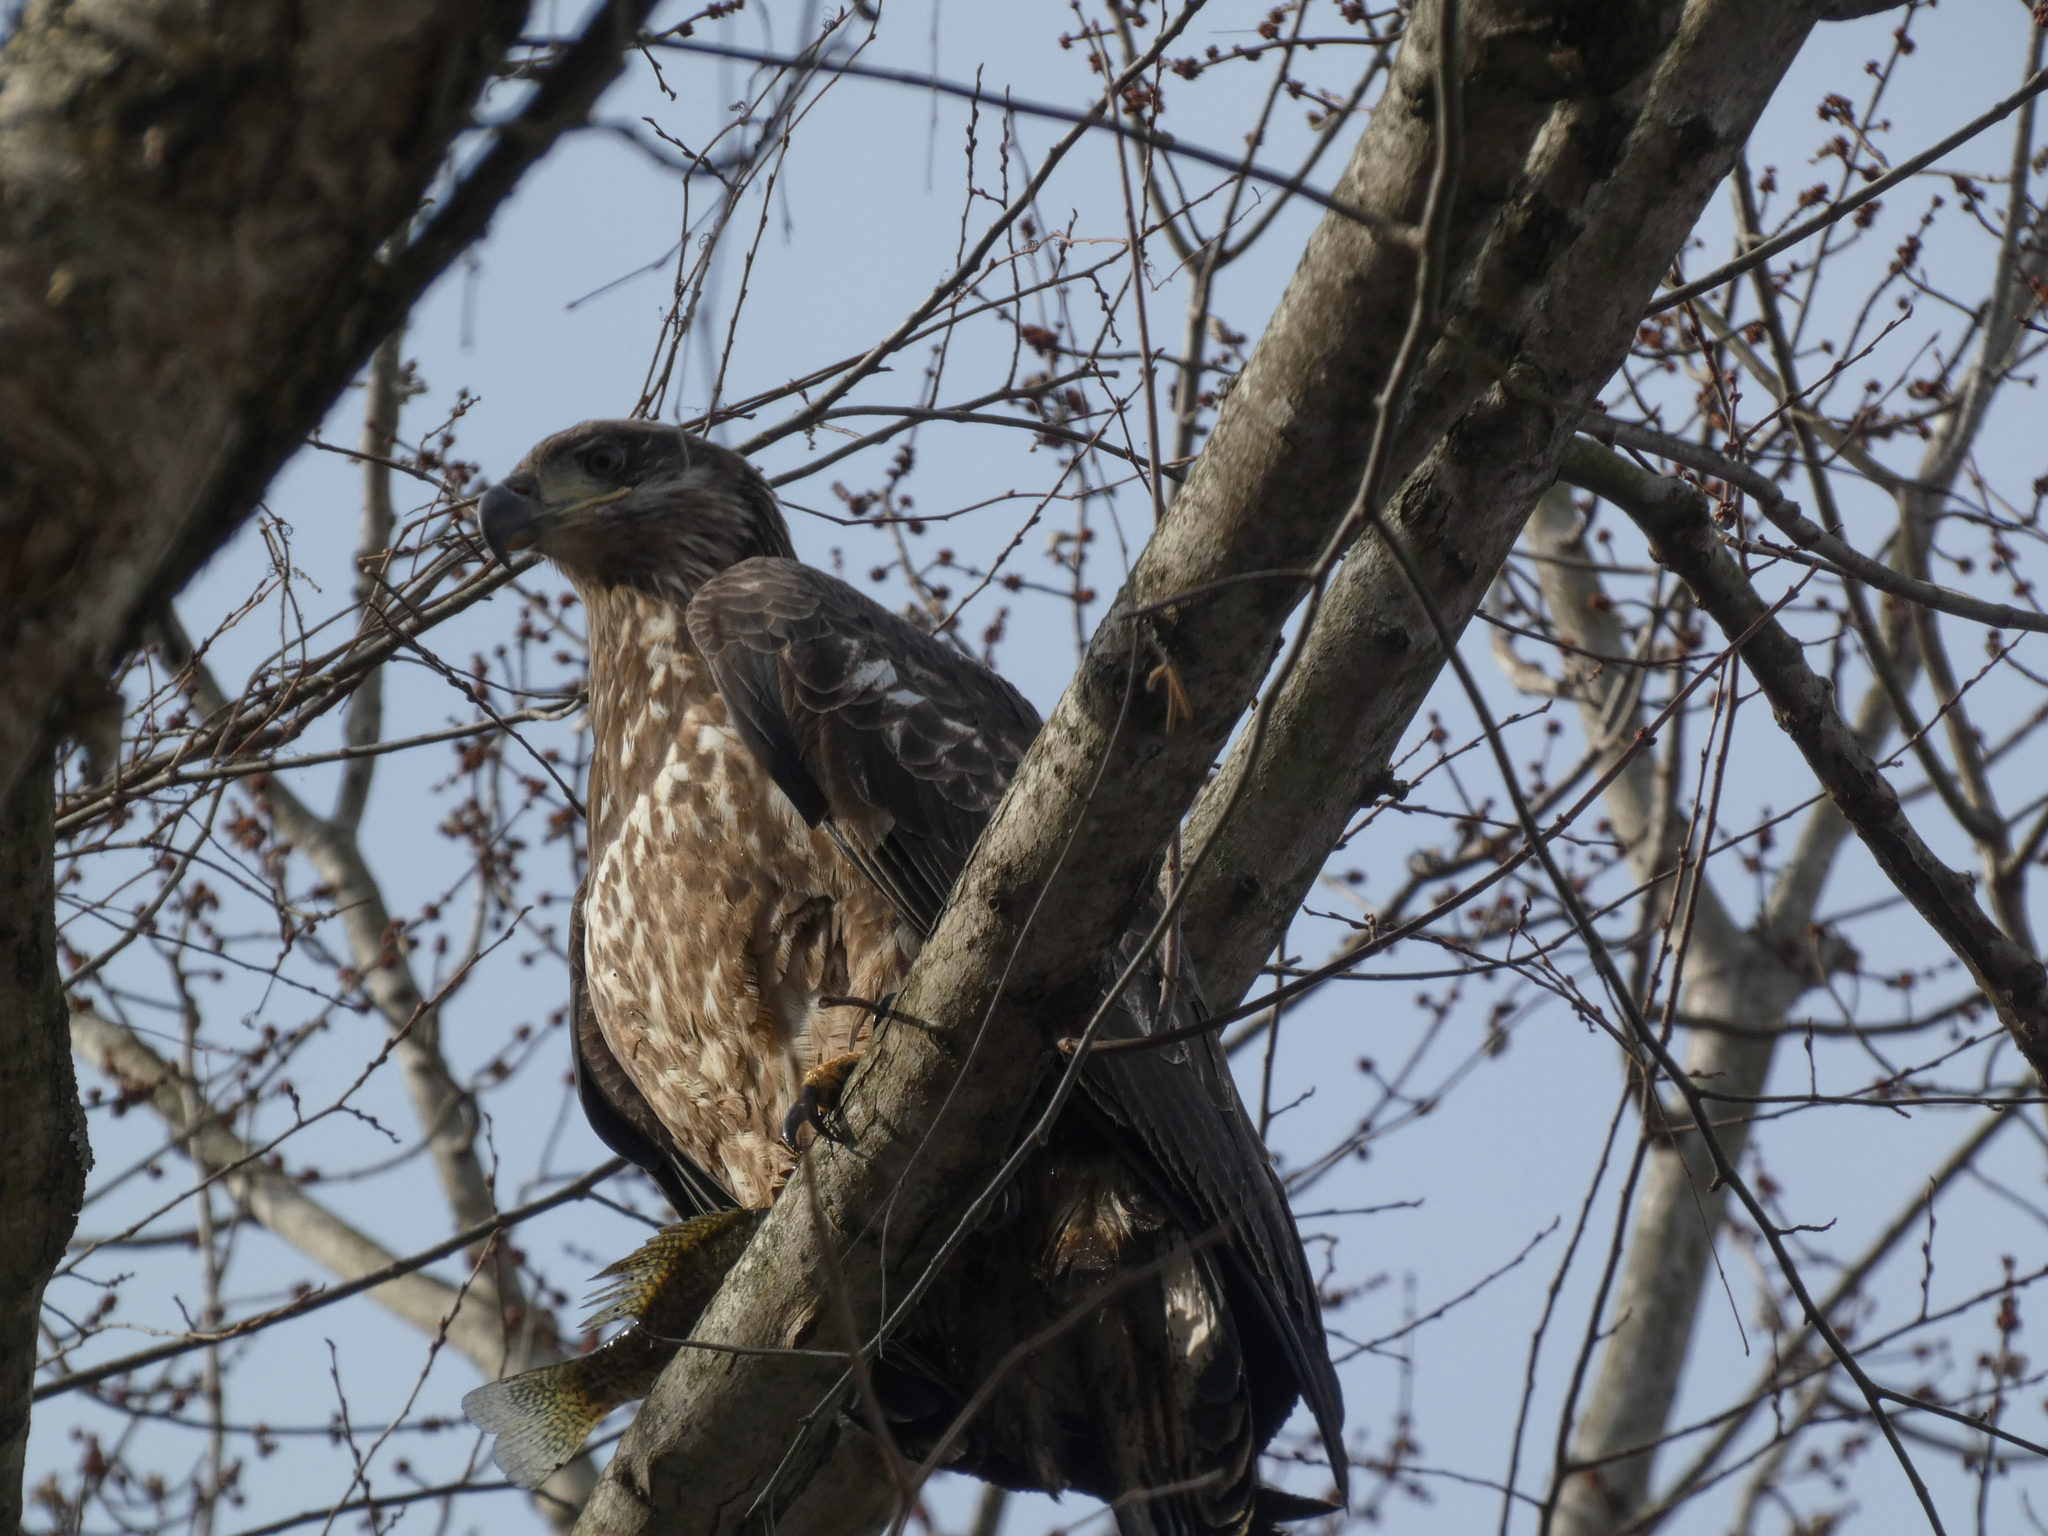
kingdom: Animalia
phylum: Chordata
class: Aves
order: Accipitriformes
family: Accipitridae
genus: Haliaeetus
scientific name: Haliaeetus leucocephalus
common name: Bald eagle
